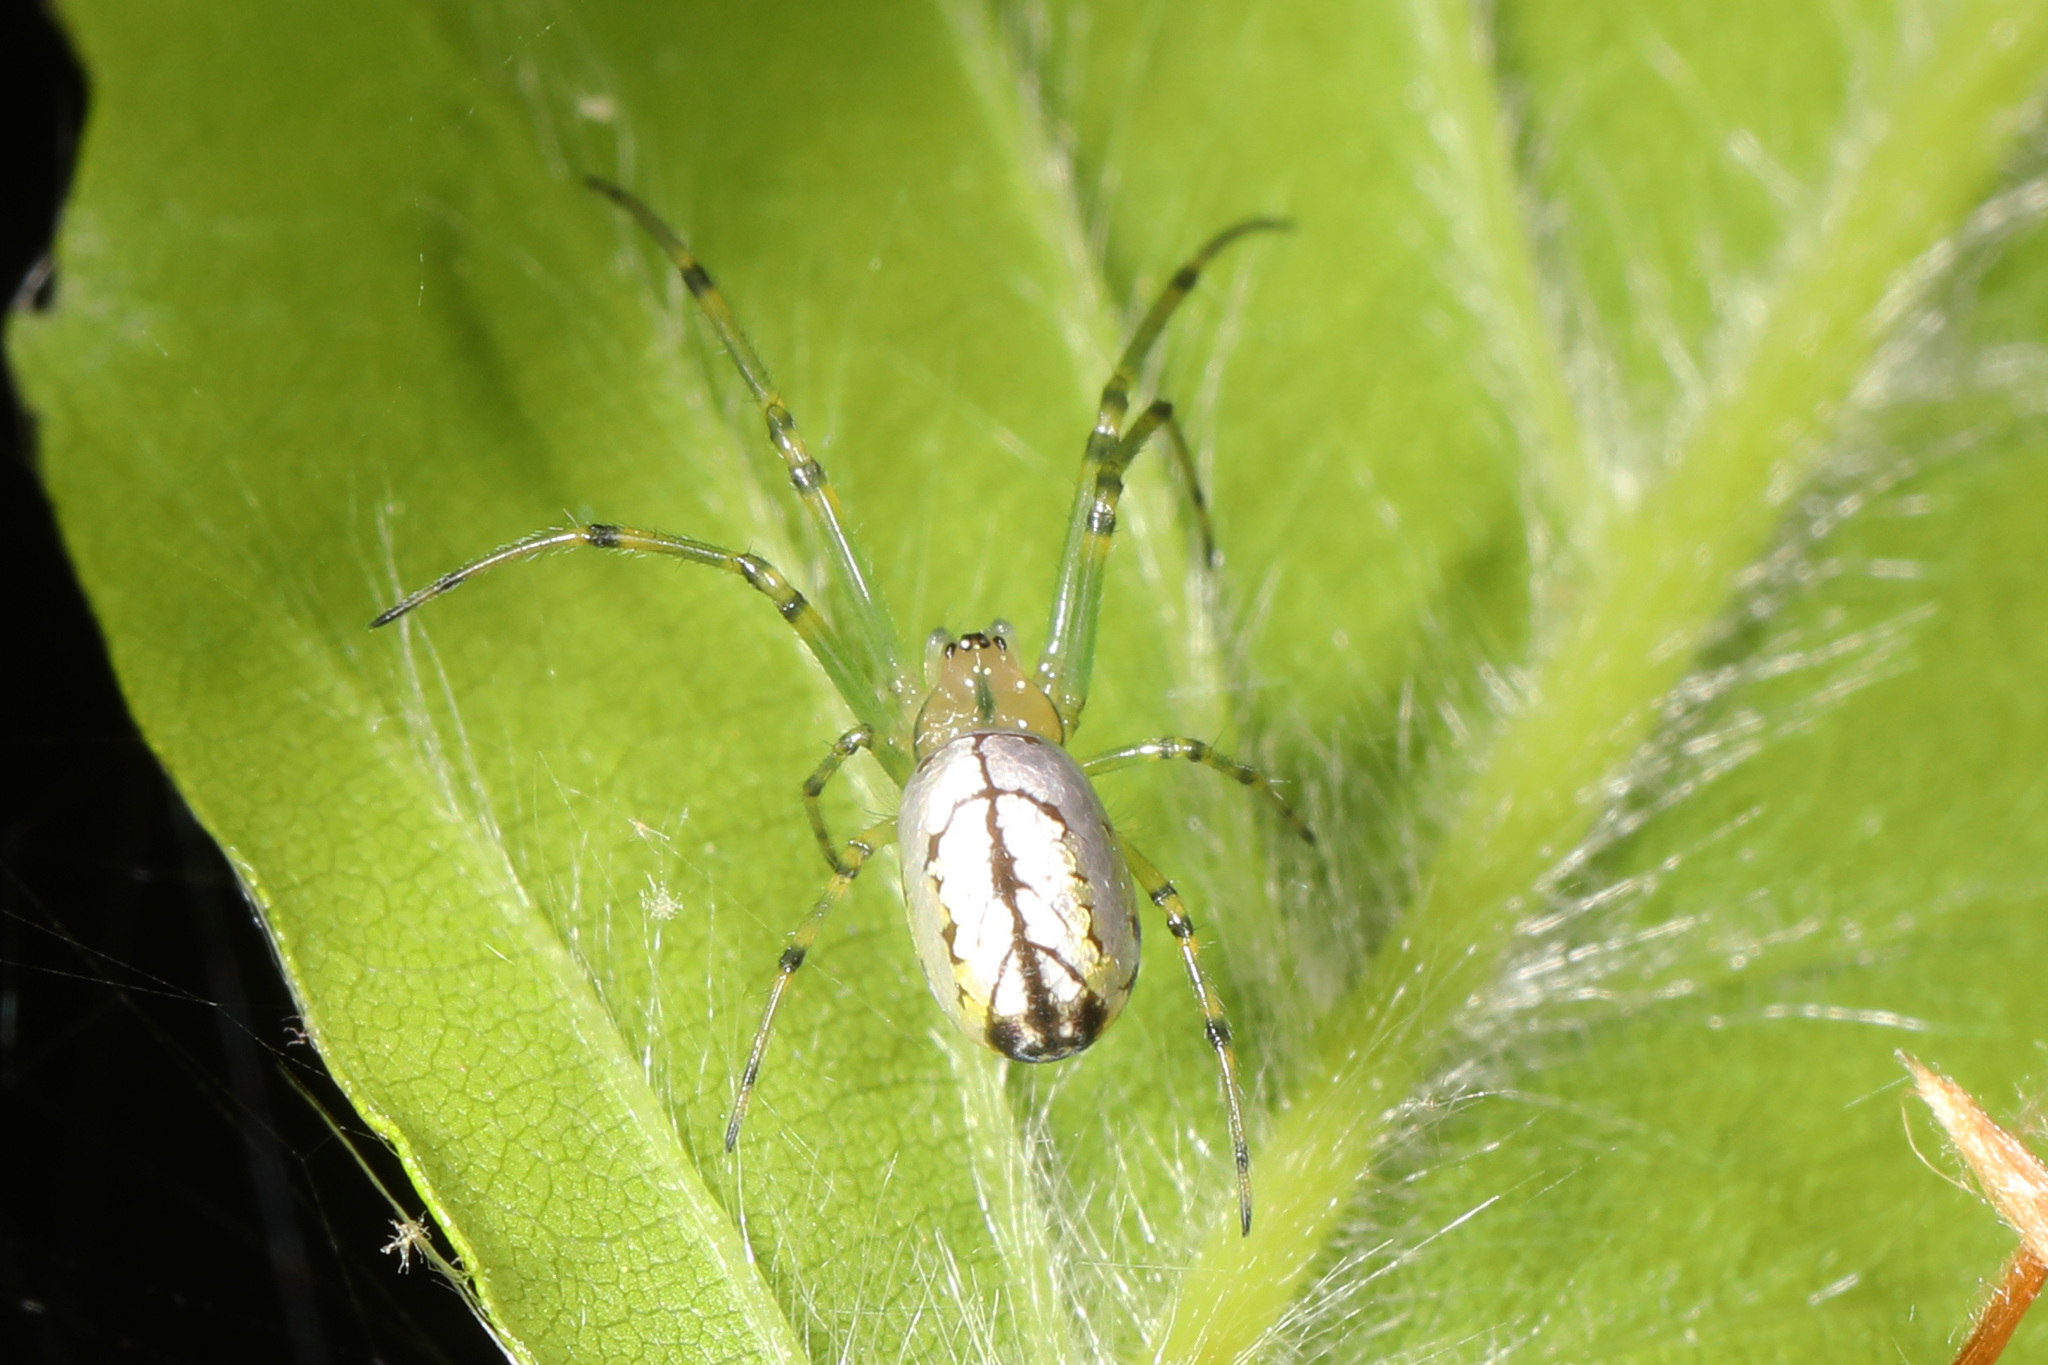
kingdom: Animalia
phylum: Arthropoda
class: Arachnida
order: Araneae
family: Tetragnathidae
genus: Leucauge
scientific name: Leucauge venusta
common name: Longjawed orb weavers
